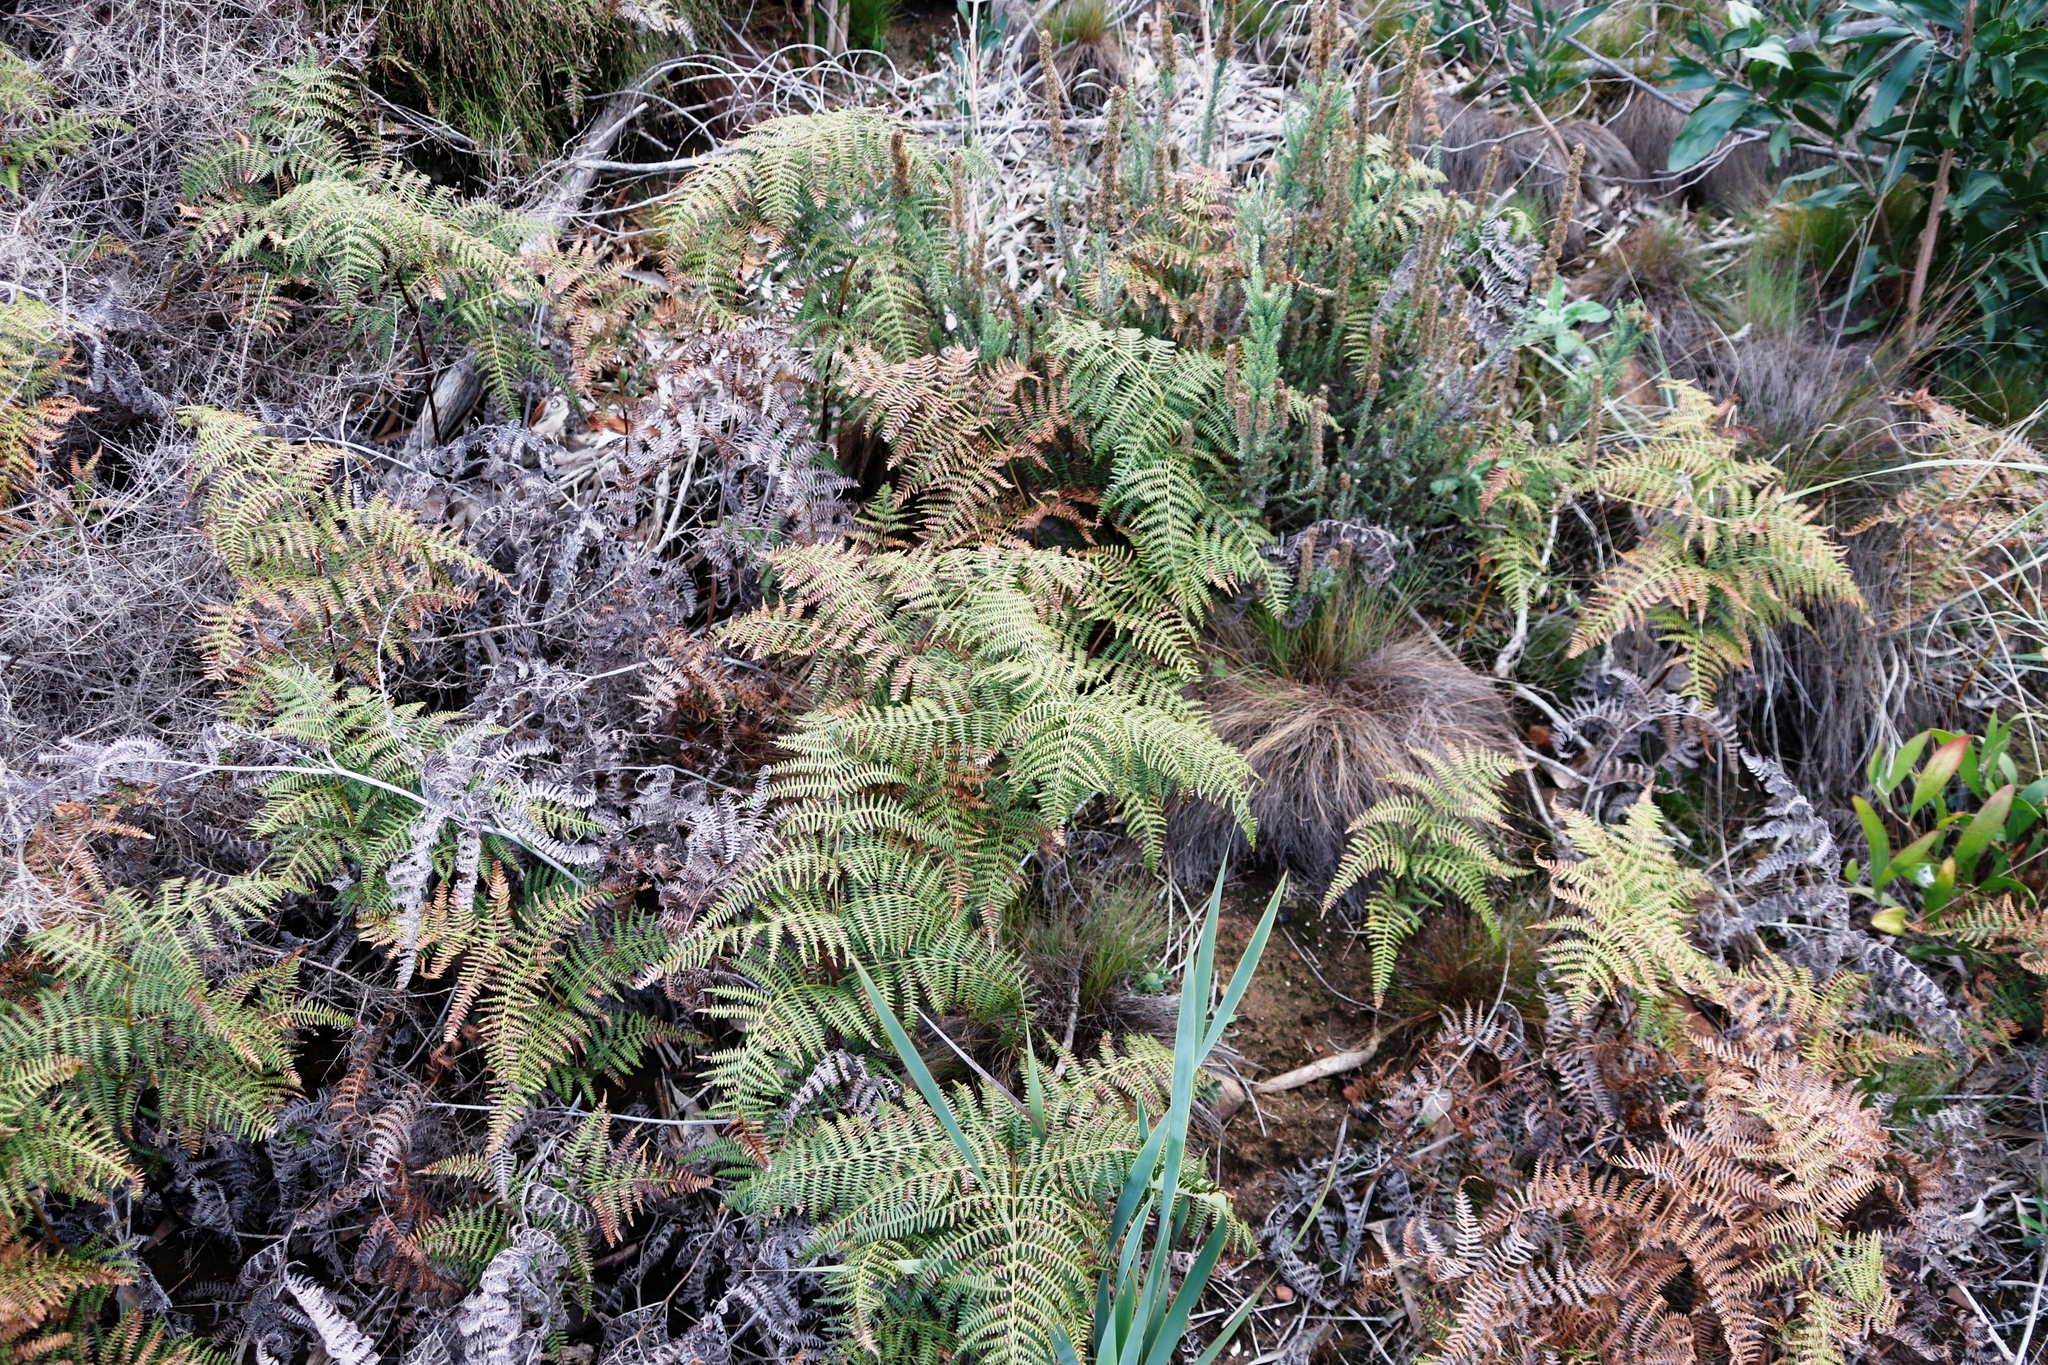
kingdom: Plantae
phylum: Tracheophyta
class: Polypodiopsida
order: Polypodiales
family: Dennstaedtiaceae
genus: Pteridium
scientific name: Pteridium aquilinum
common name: Bracken
